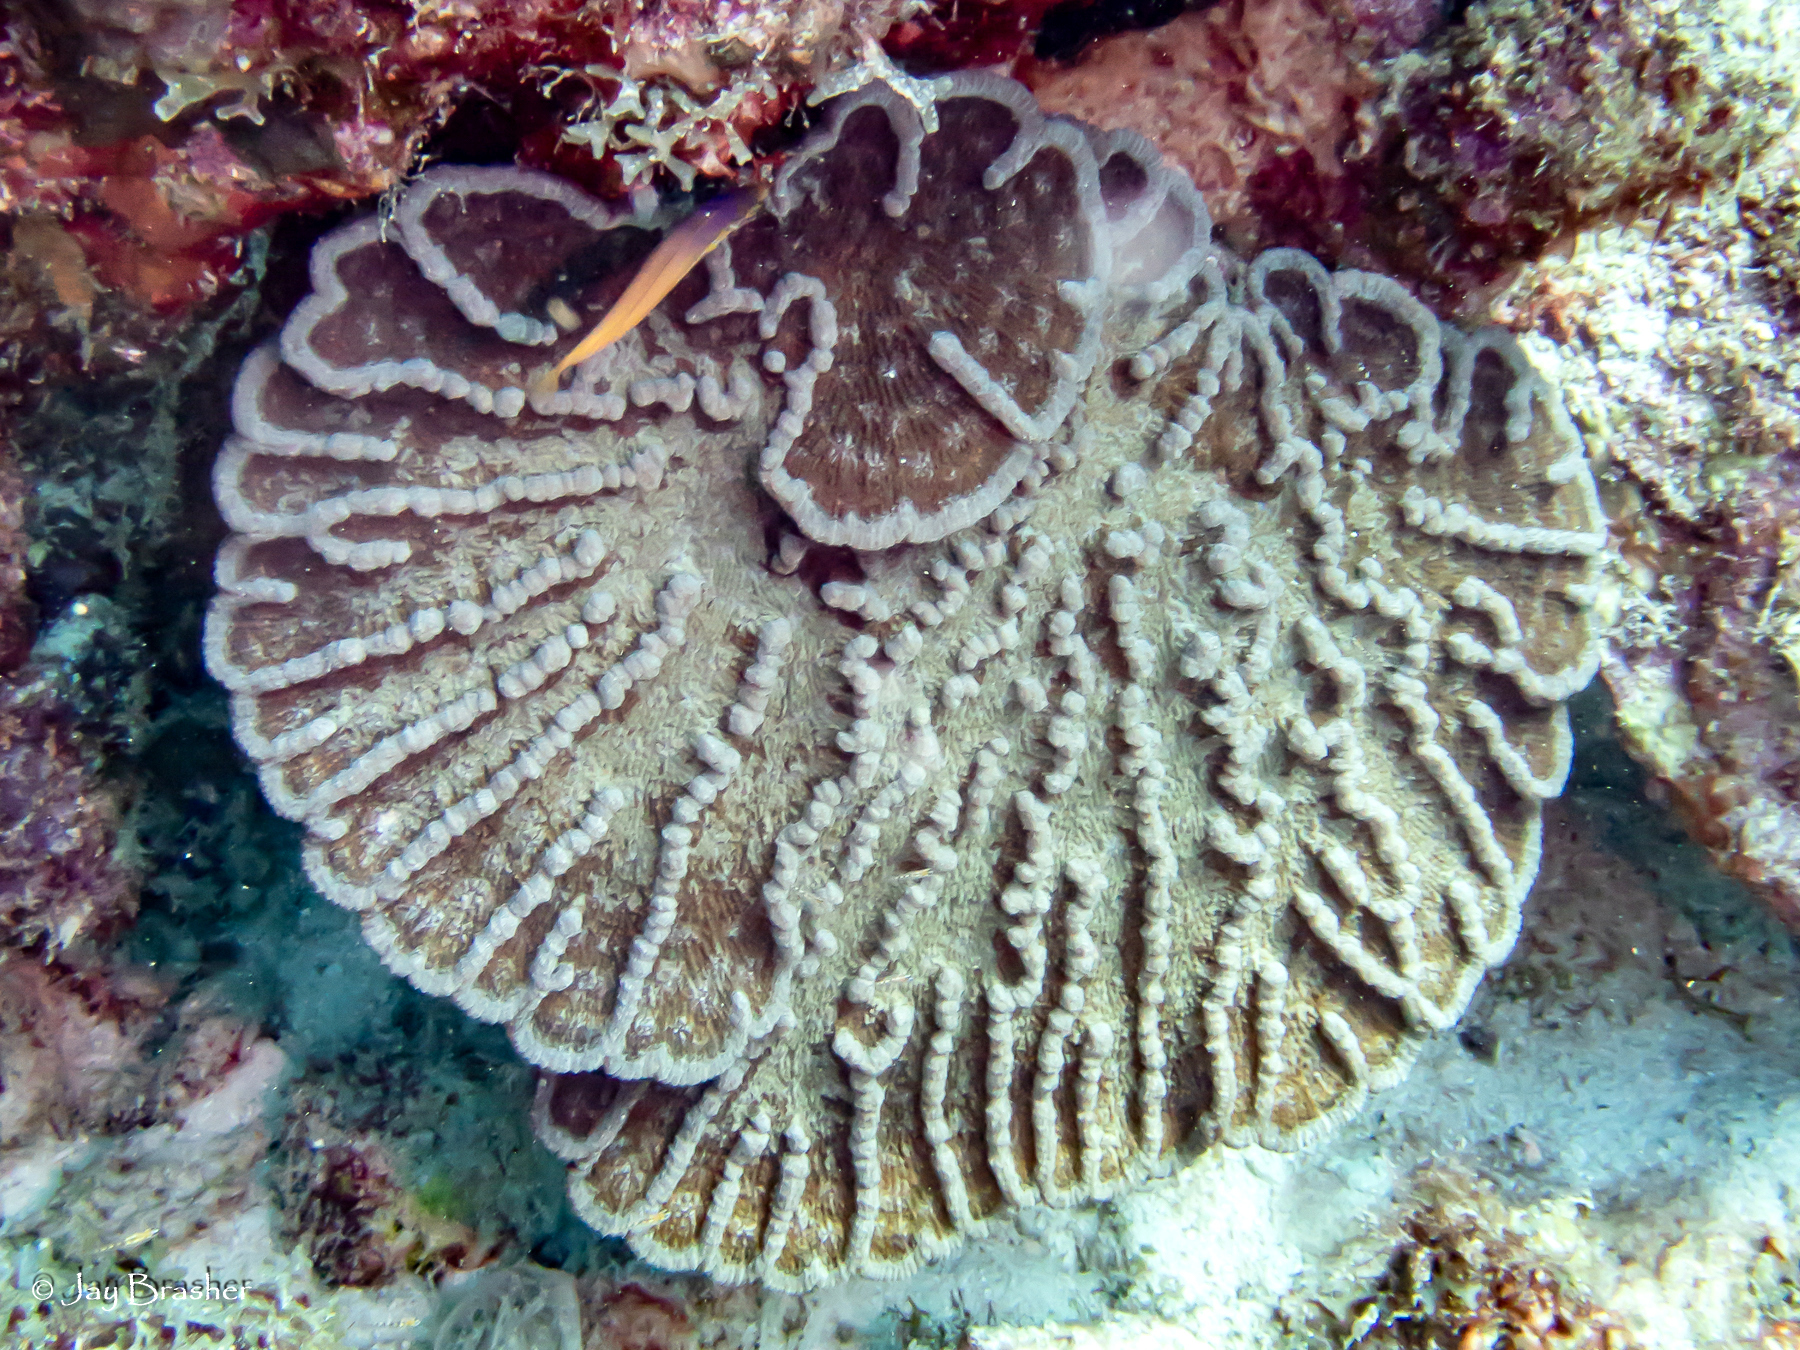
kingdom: Animalia
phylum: Cnidaria
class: Anthozoa
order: Scleractinia
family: Faviidae
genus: Mycetophyllia
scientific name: Mycetophyllia lamarckiana
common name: Ridged cactus coral
